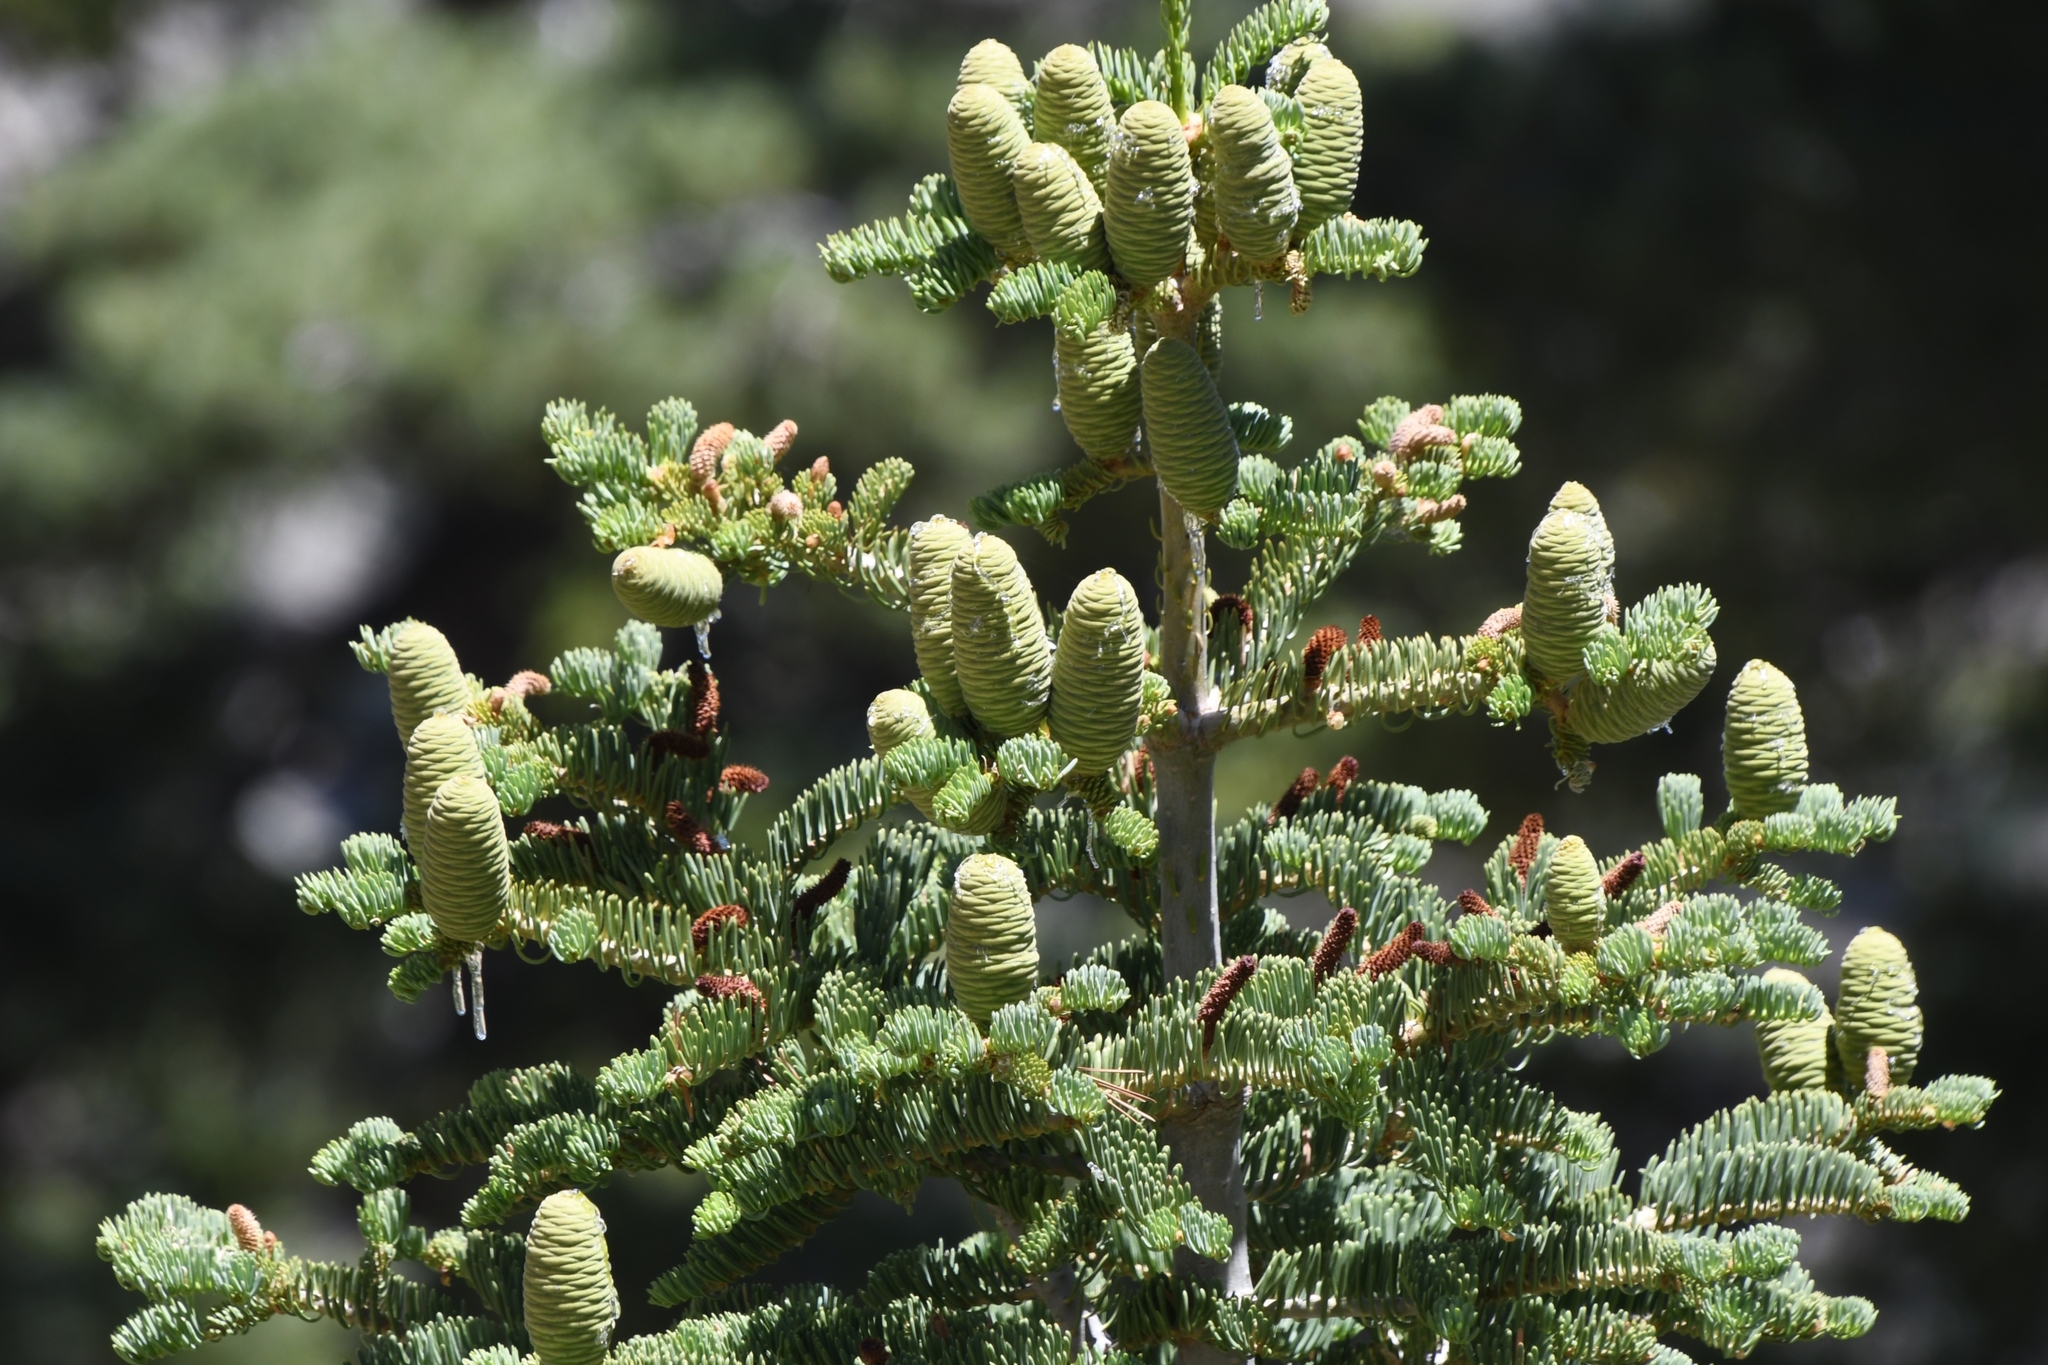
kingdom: Plantae
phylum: Tracheophyta
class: Pinopsida
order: Pinales
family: Pinaceae
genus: Abies
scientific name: Abies concolor
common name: Colorado fir
